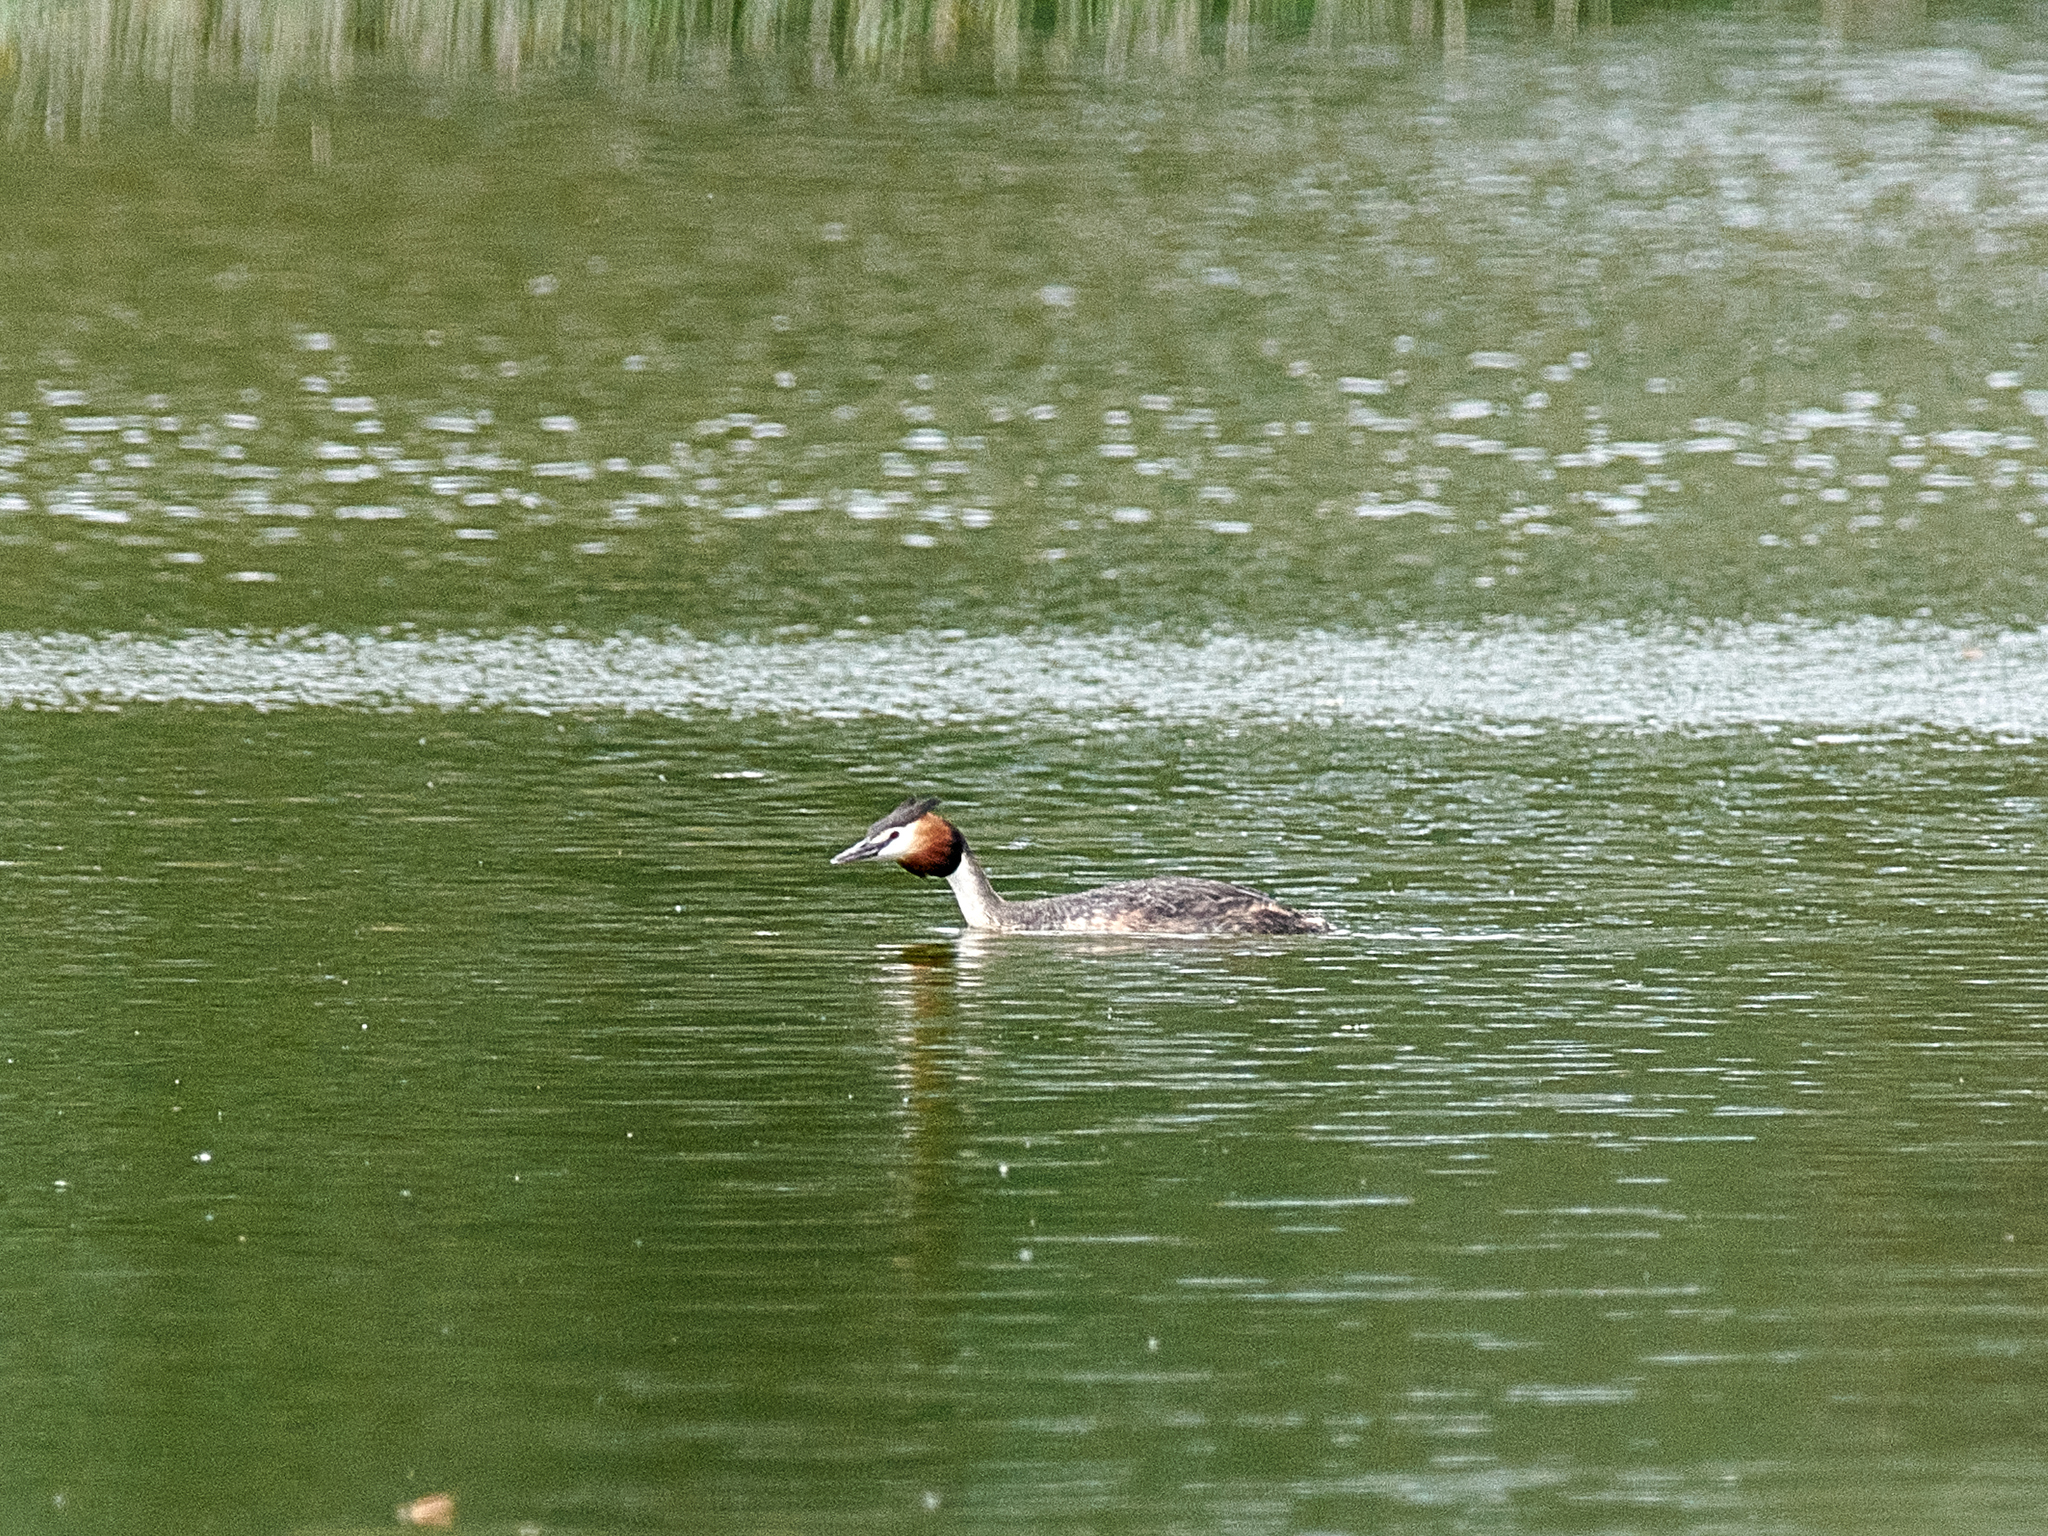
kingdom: Animalia
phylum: Chordata
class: Aves
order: Podicipediformes
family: Podicipedidae
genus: Podiceps
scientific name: Podiceps cristatus
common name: Great crested grebe
